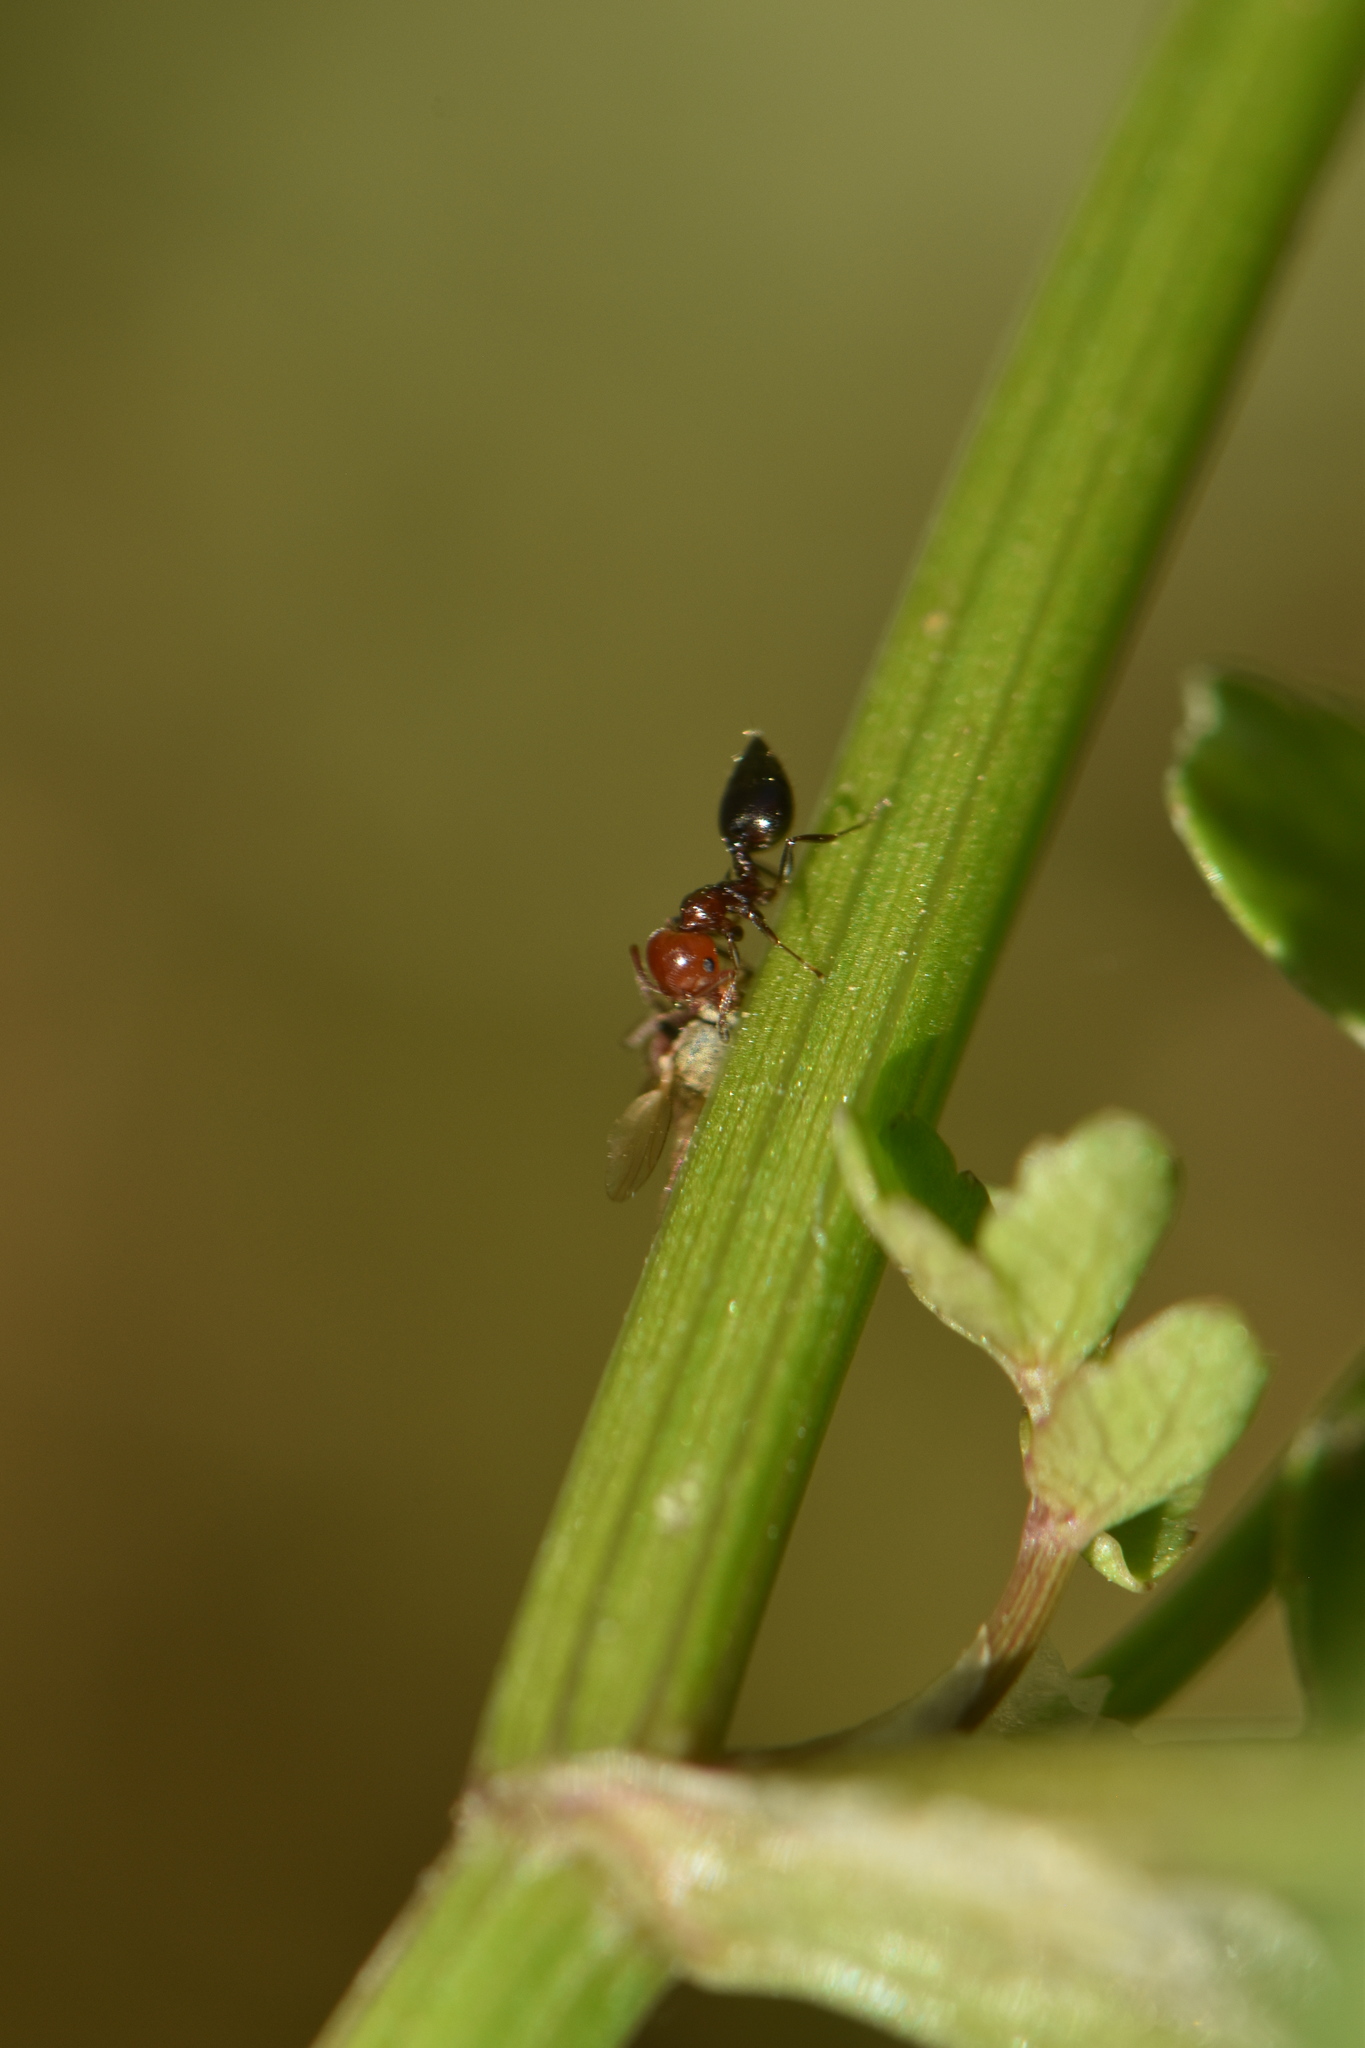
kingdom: Animalia
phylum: Arthropoda
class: Insecta
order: Hymenoptera
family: Formicidae
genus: Crematogaster
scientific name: Crematogaster scutellaris
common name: Fourmi du liège
